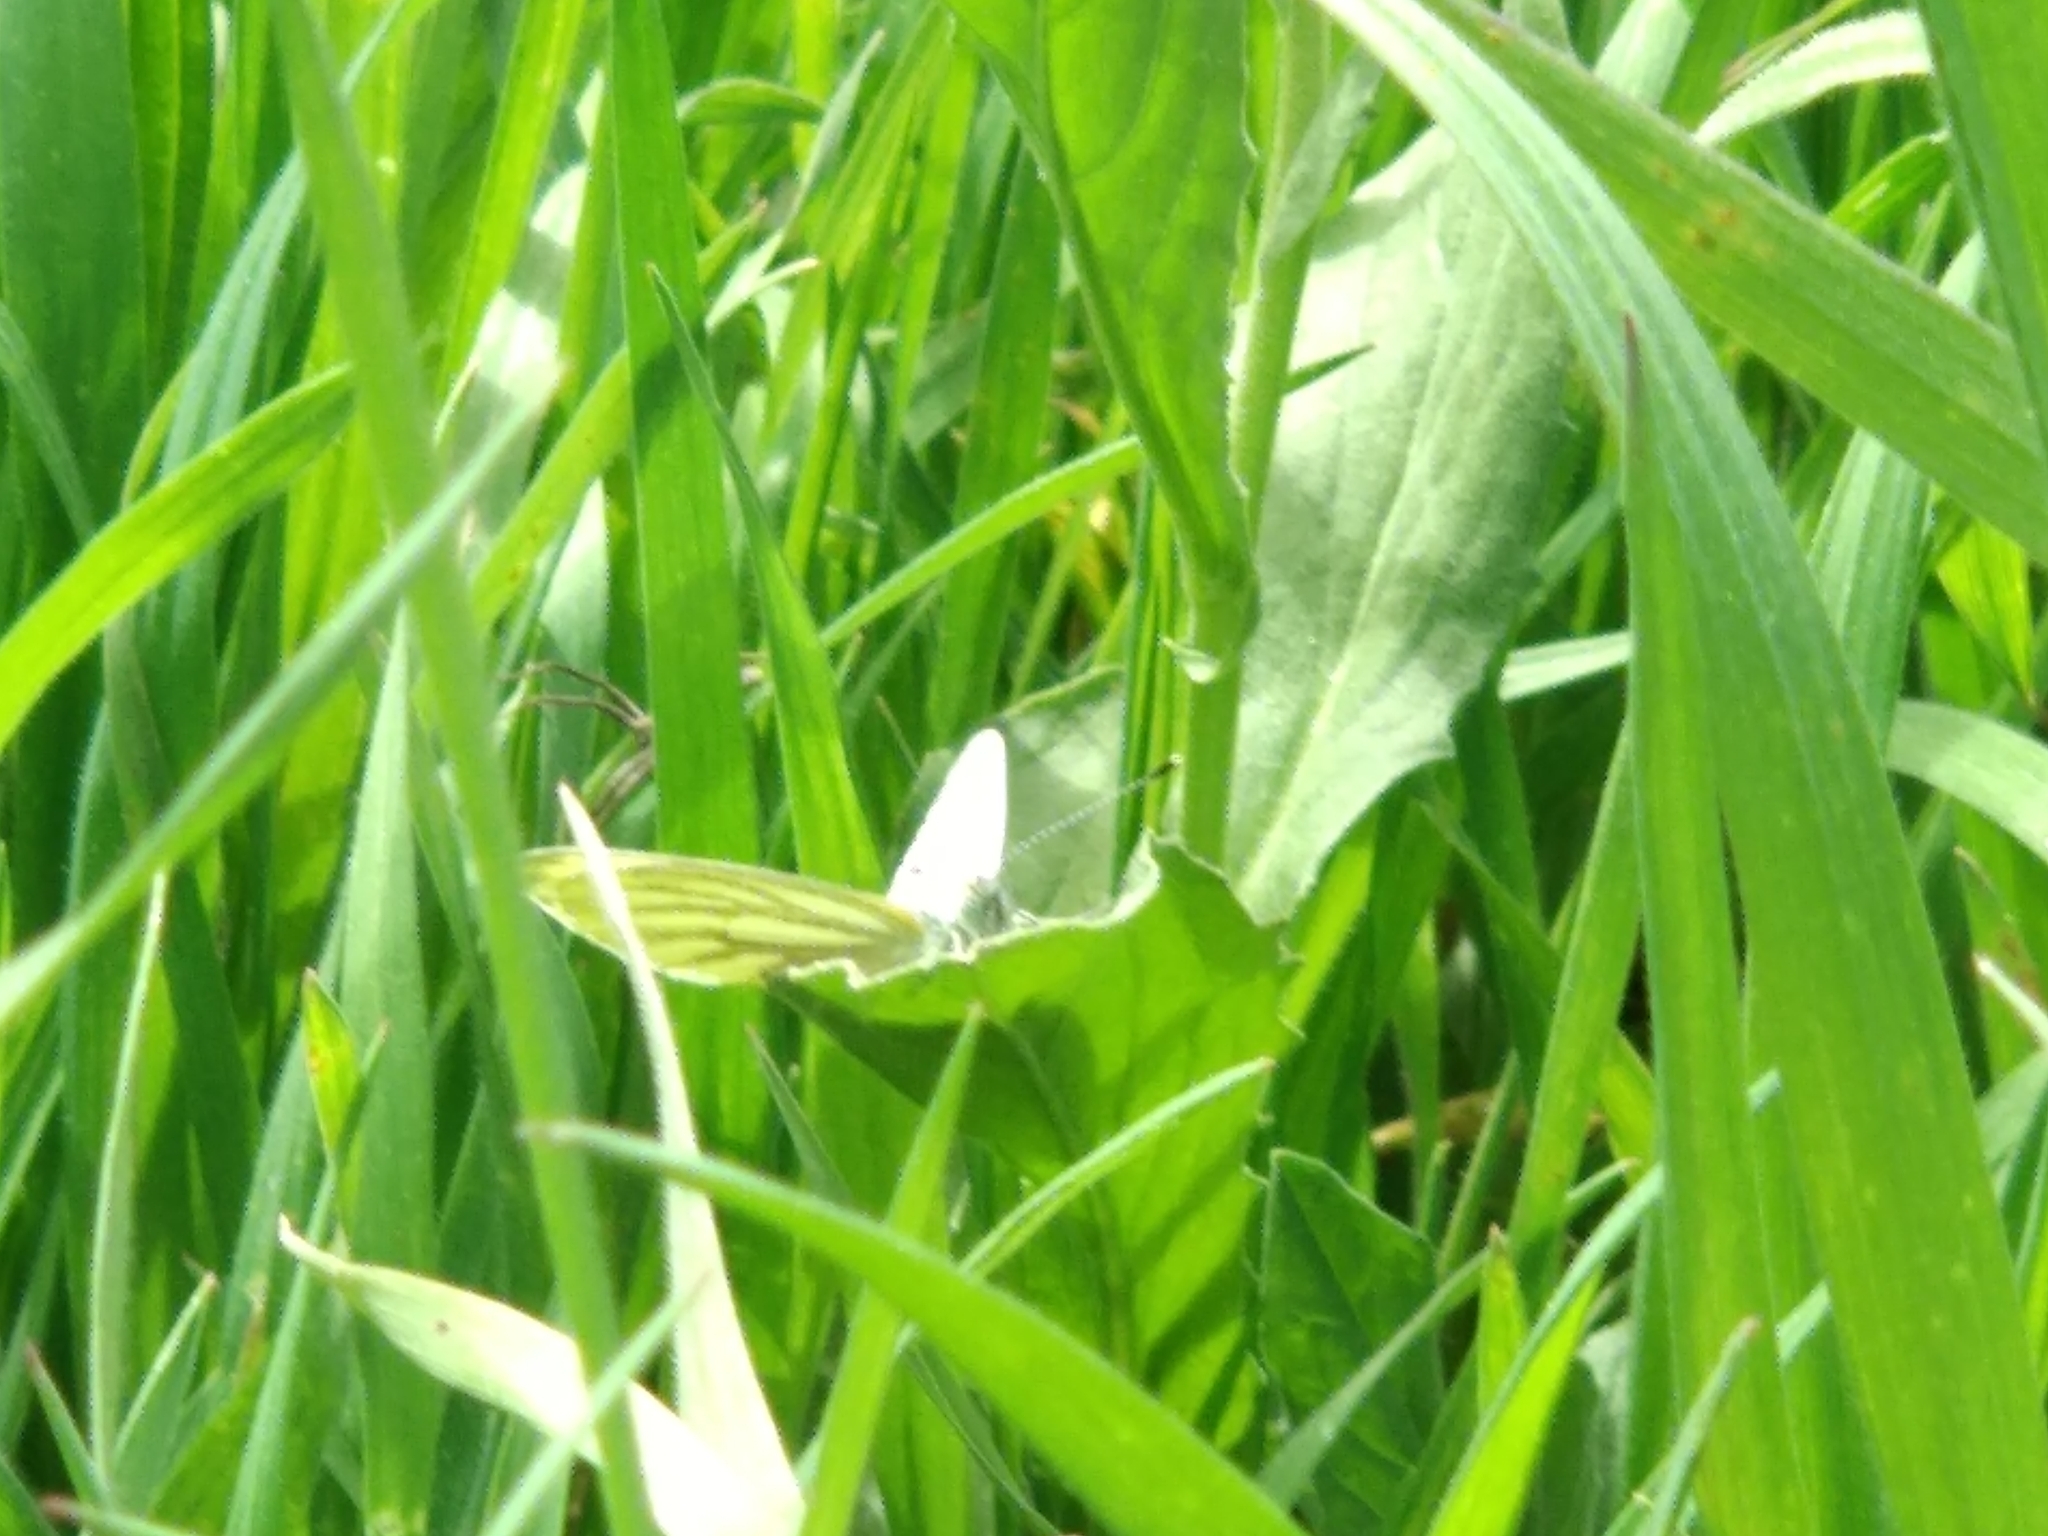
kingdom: Animalia
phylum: Arthropoda
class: Insecta
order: Lepidoptera
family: Pieridae
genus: Pieris
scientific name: Pieris napi
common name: Green-veined white
